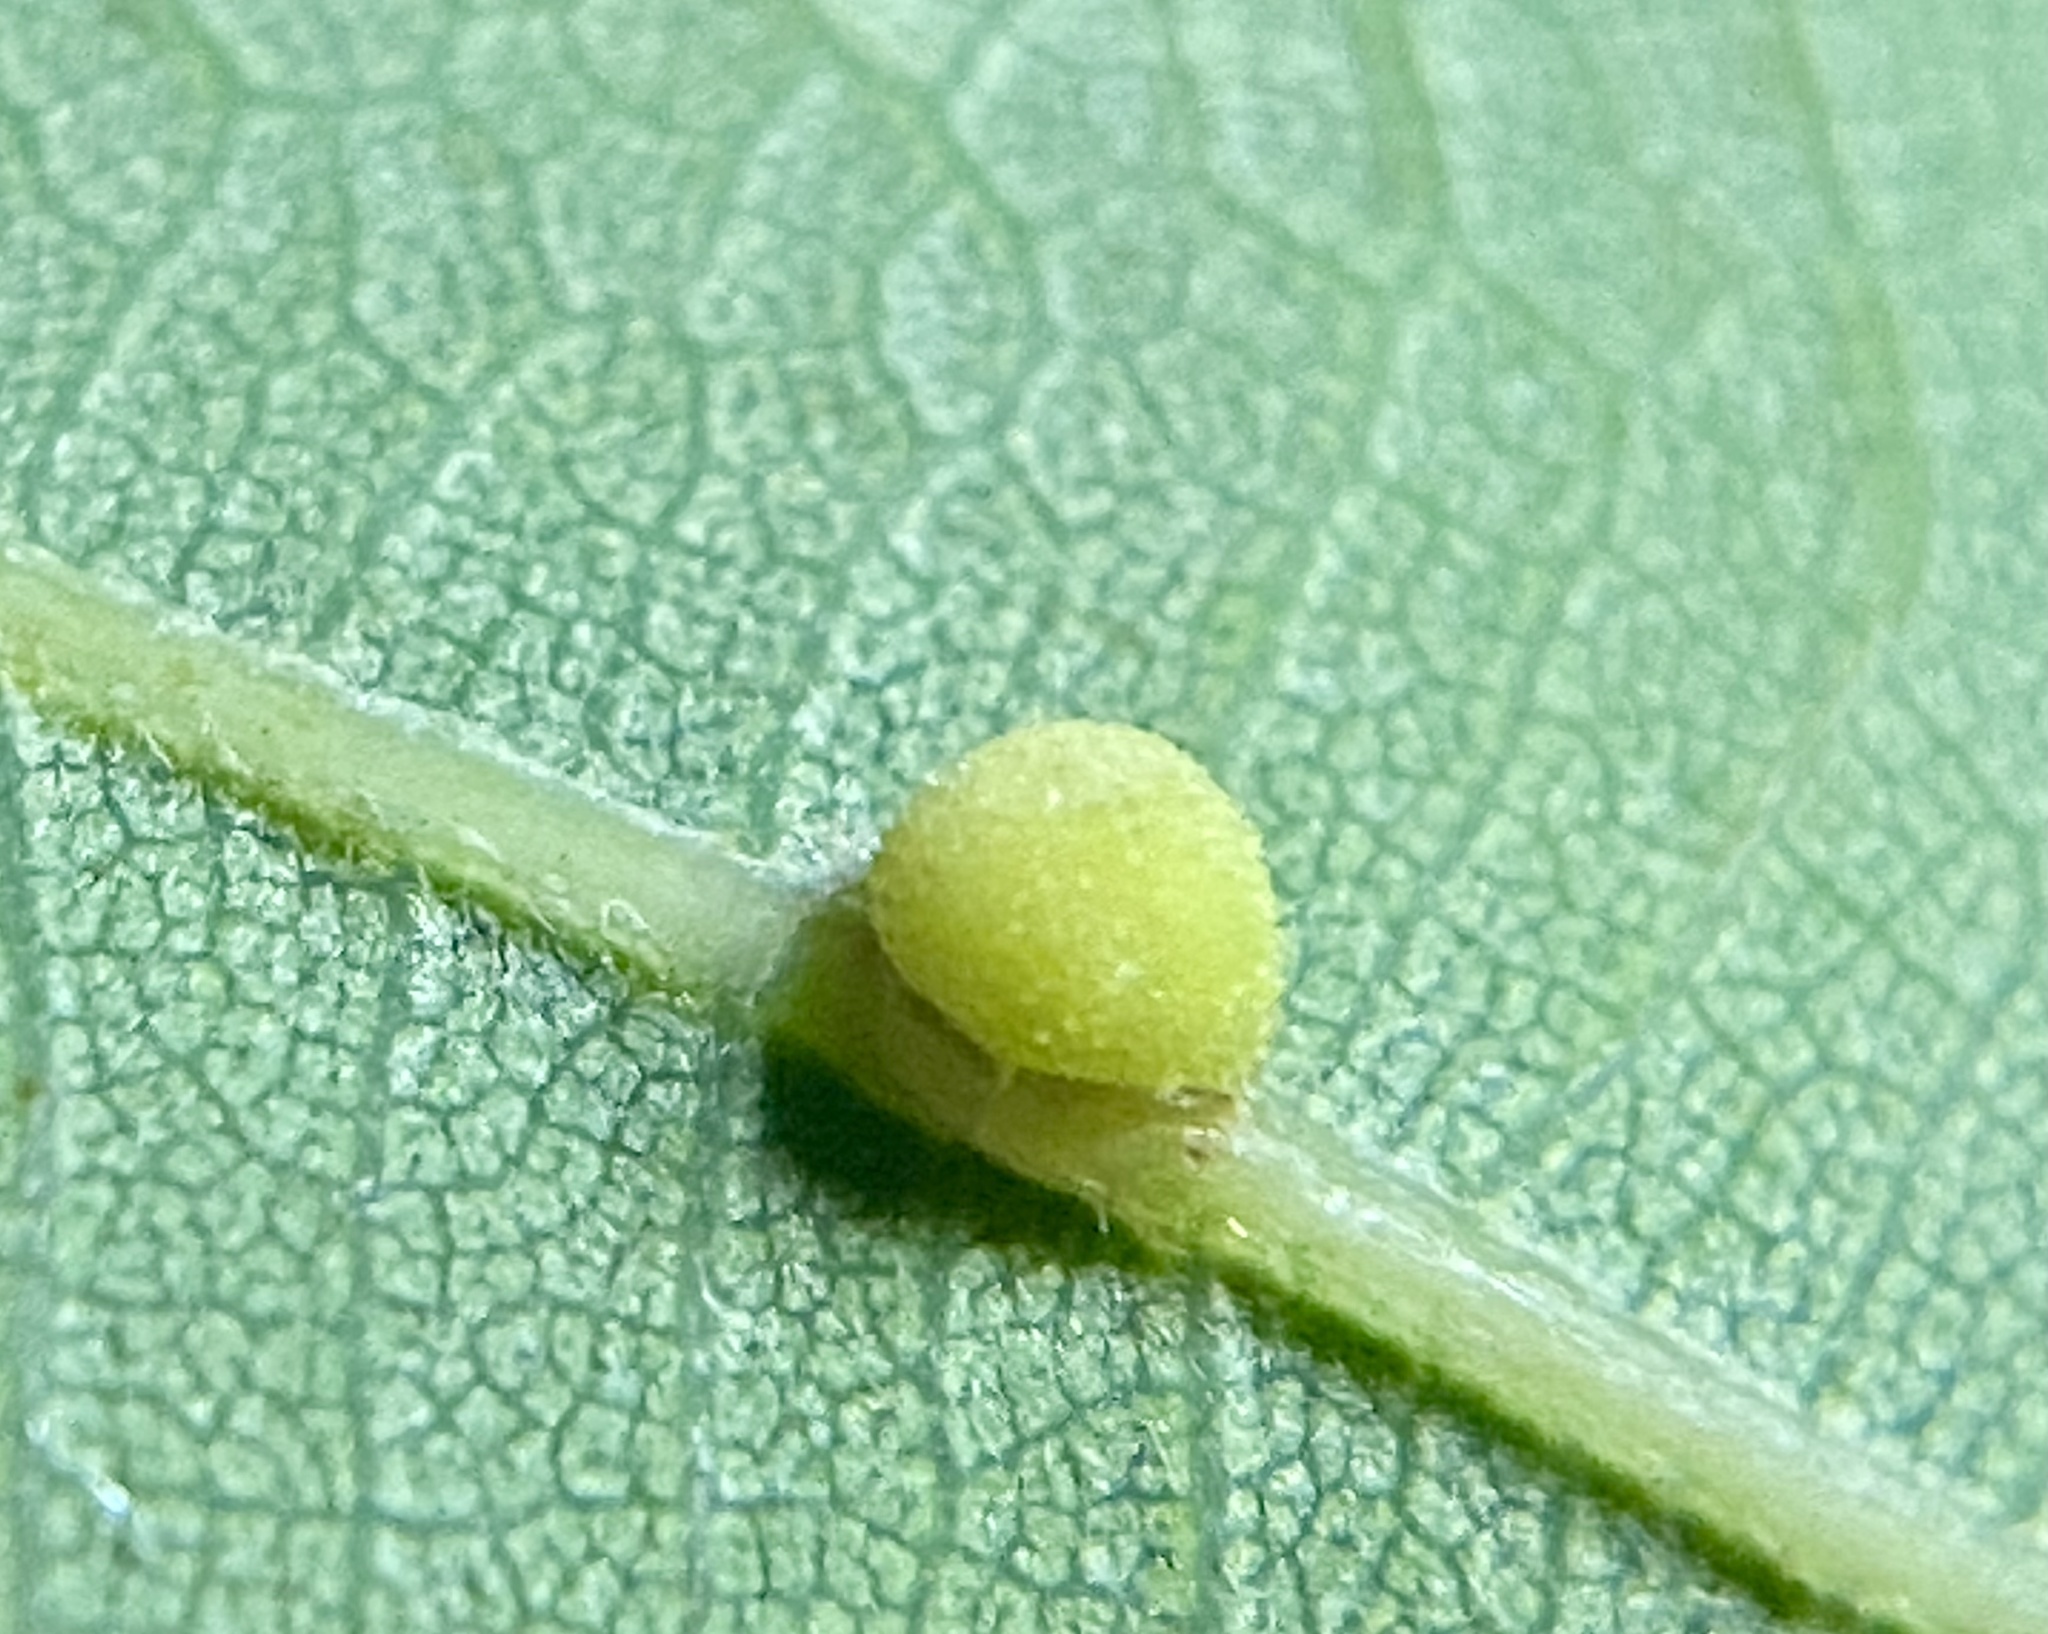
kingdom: Animalia
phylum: Arthropoda
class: Insecta
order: Hymenoptera
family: Cynipidae
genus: Acraspis
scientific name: Acraspis quercushirta
